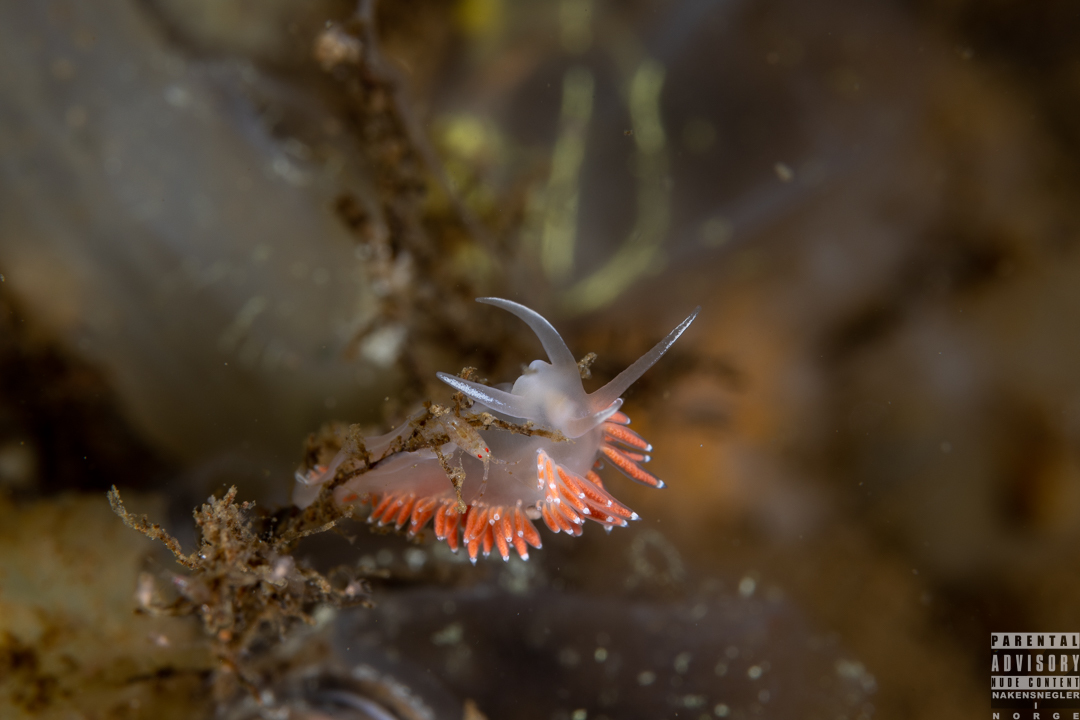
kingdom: Animalia
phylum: Mollusca
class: Gastropoda
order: Nudibranchia
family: Coryphellidae
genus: Coryphella
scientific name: Coryphella verrucosa
